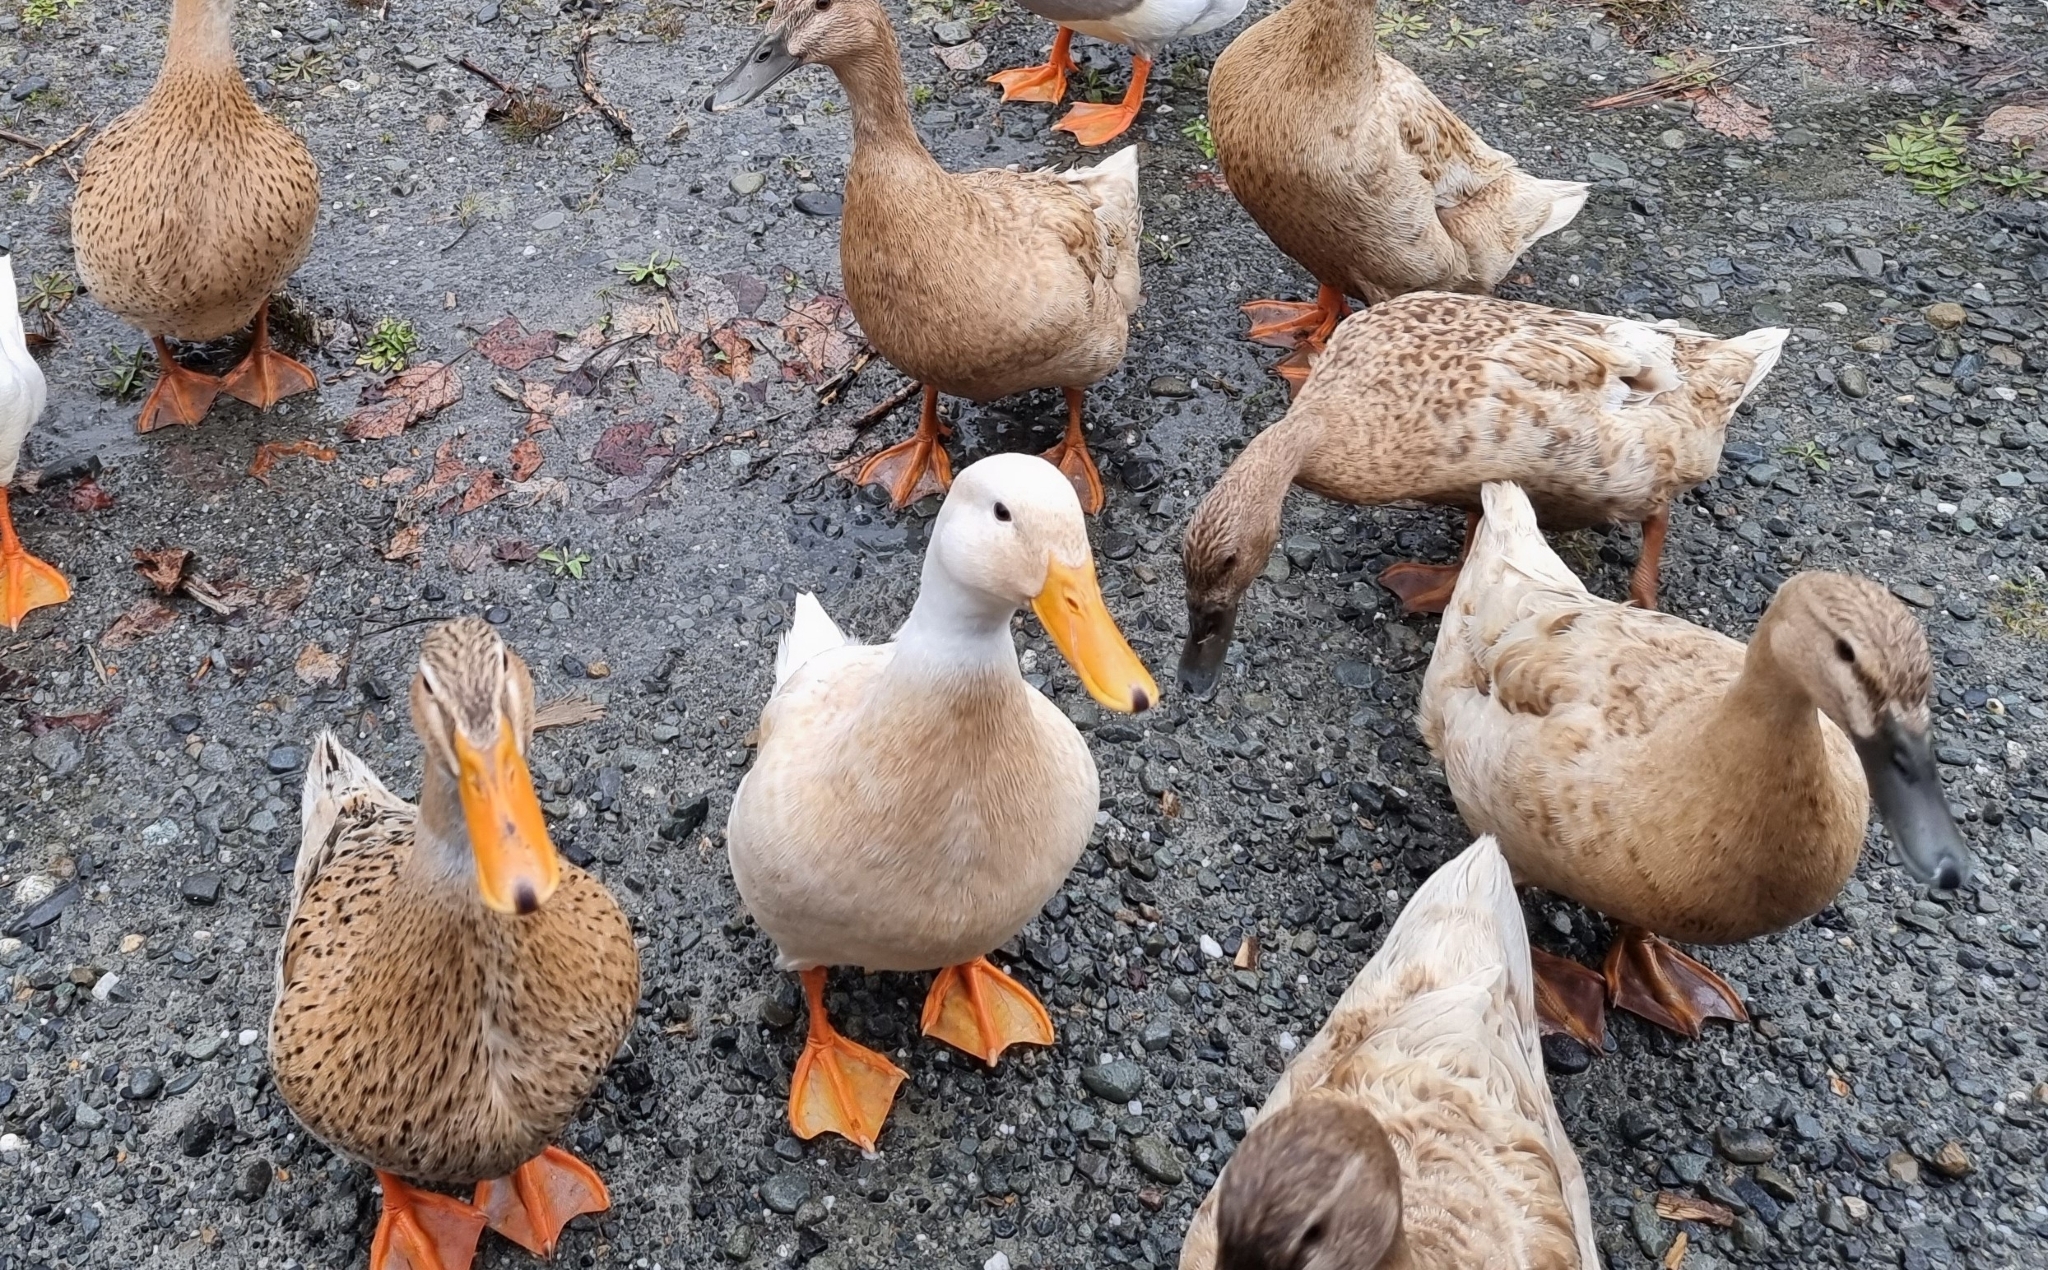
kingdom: Animalia
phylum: Chordata
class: Aves
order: Anseriformes
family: Anatidae
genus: Anas
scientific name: Anas platyrhynchos
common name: Mallard
